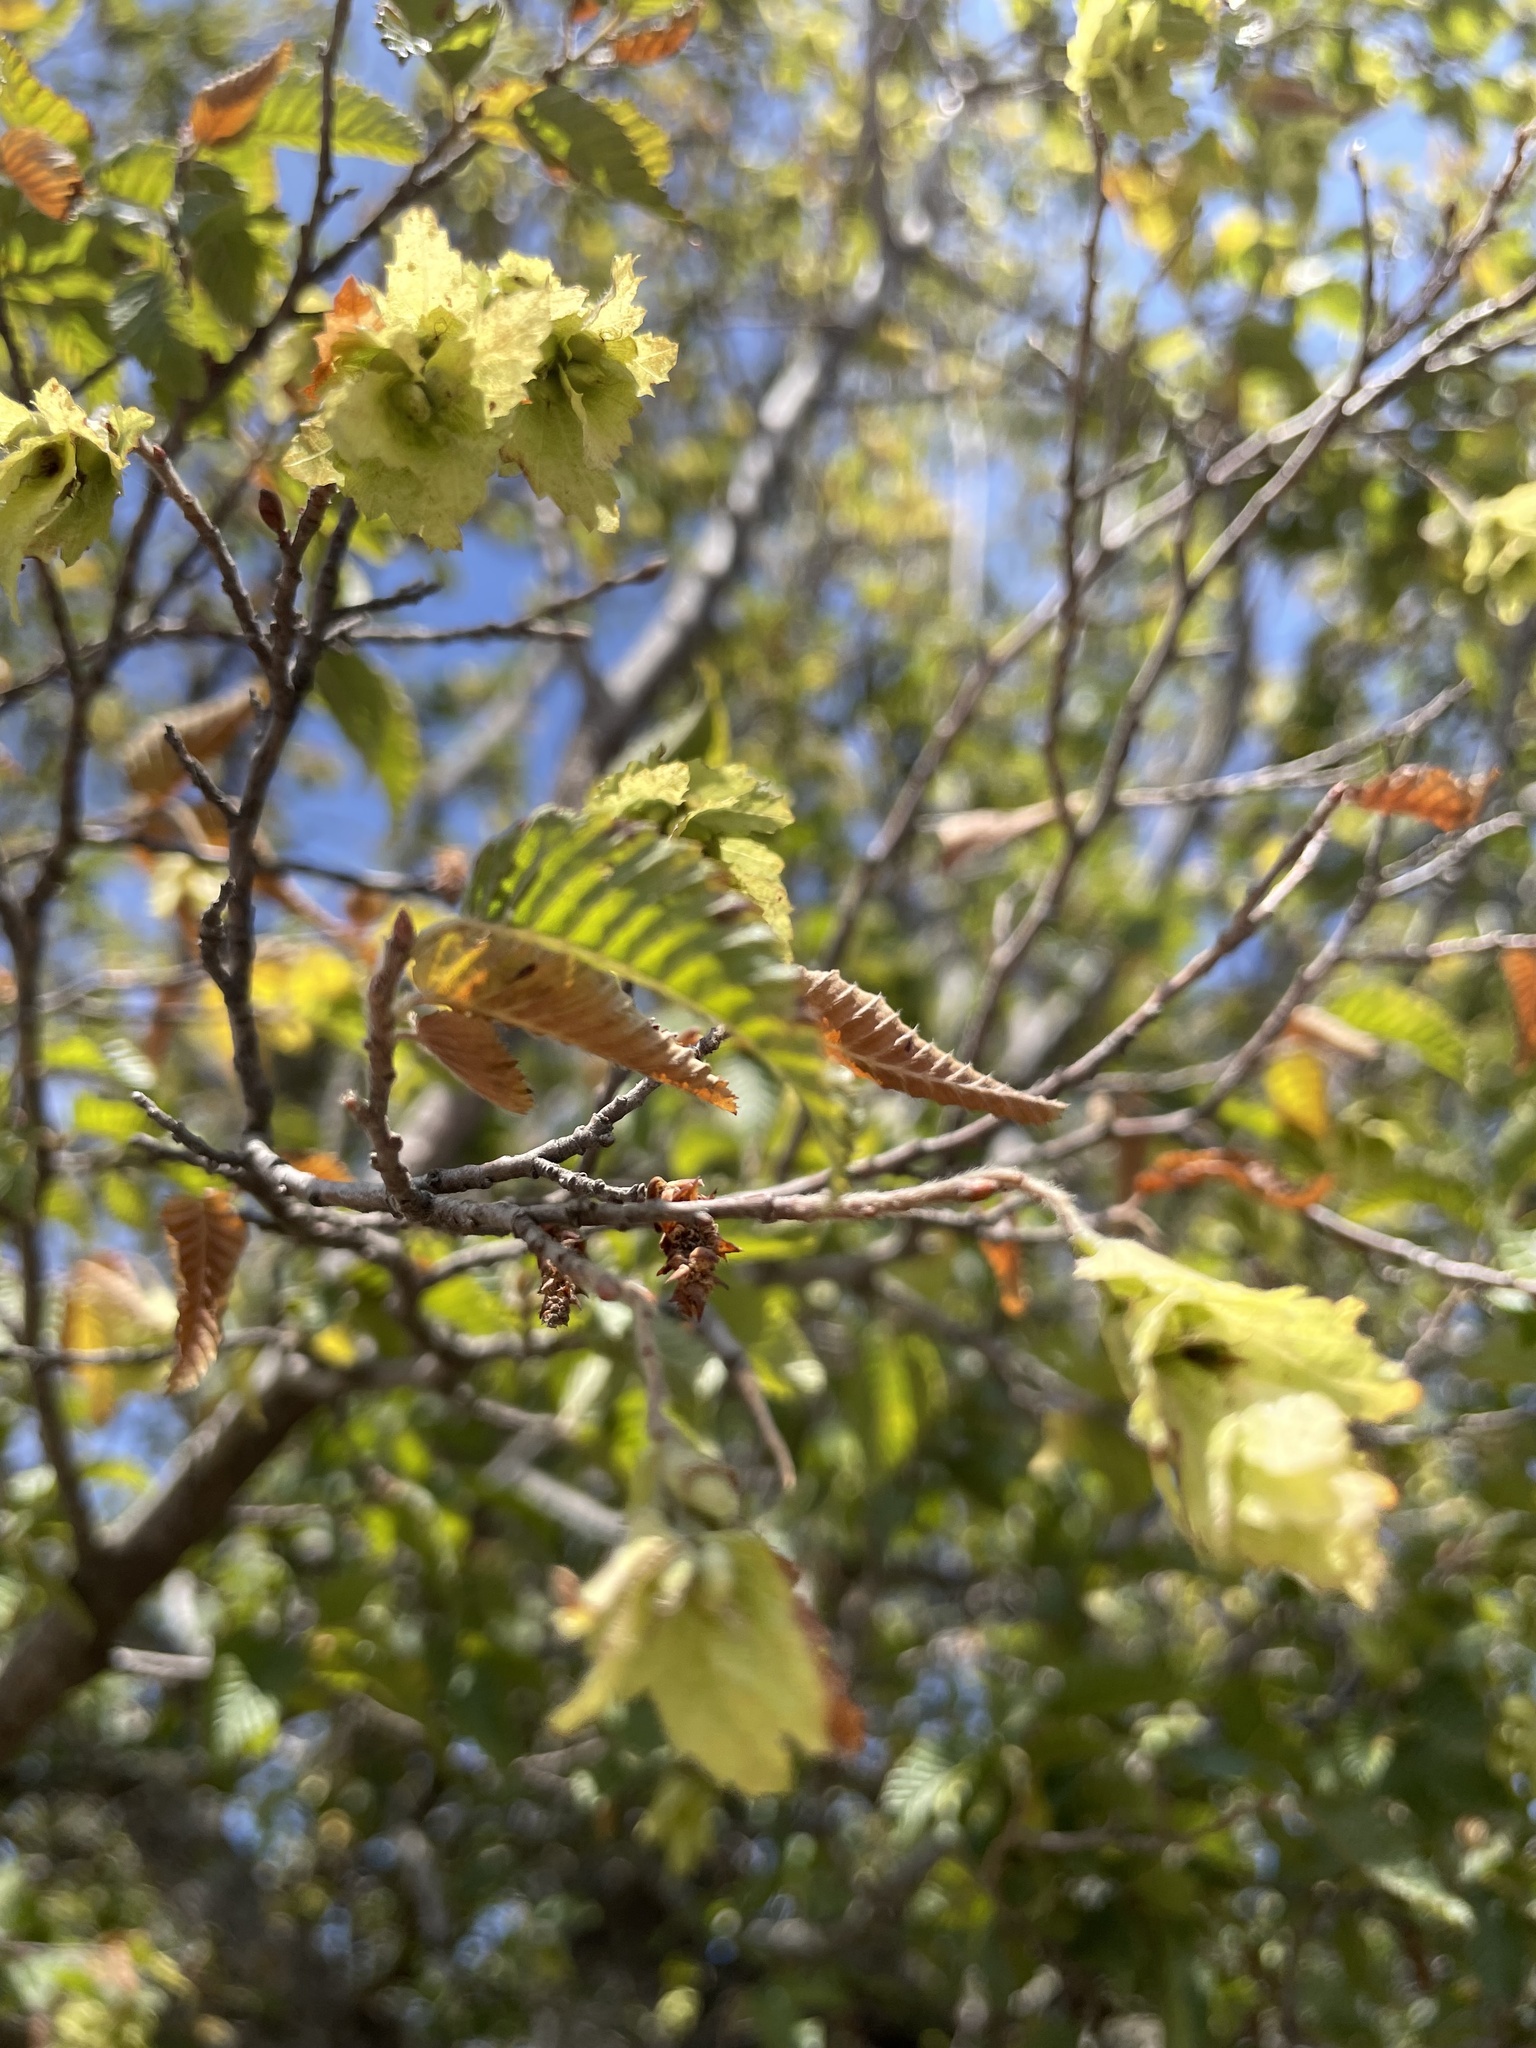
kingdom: Plantae
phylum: Tracheophyta
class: Magnoliopsida
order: Fagales
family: Betulaceae
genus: Carpinus
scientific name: Carpinus orientalis
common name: Eastern hornbeam
